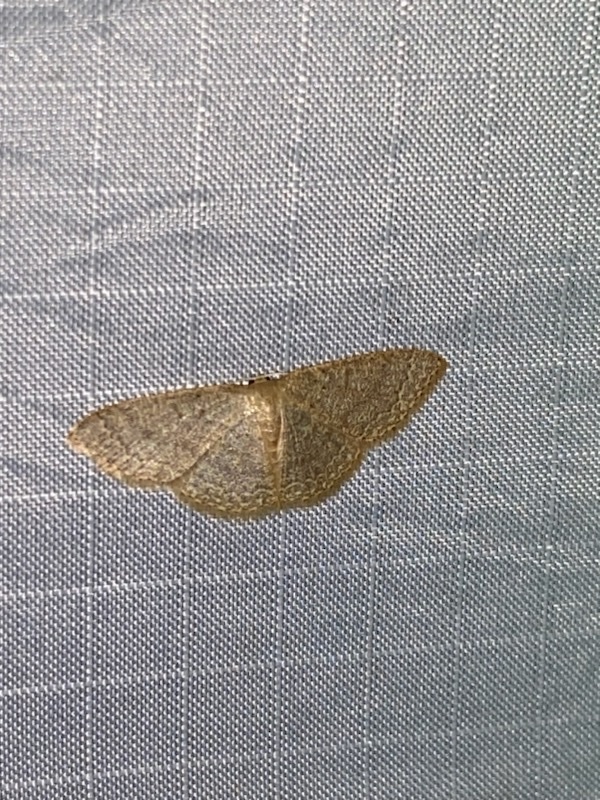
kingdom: Animalia
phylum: Arthropoda
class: Insecta
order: Lepidoptera
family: Geometridae
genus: Pleuroprucha
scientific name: Pleuroprucha insulsaria
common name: Common tan wave
